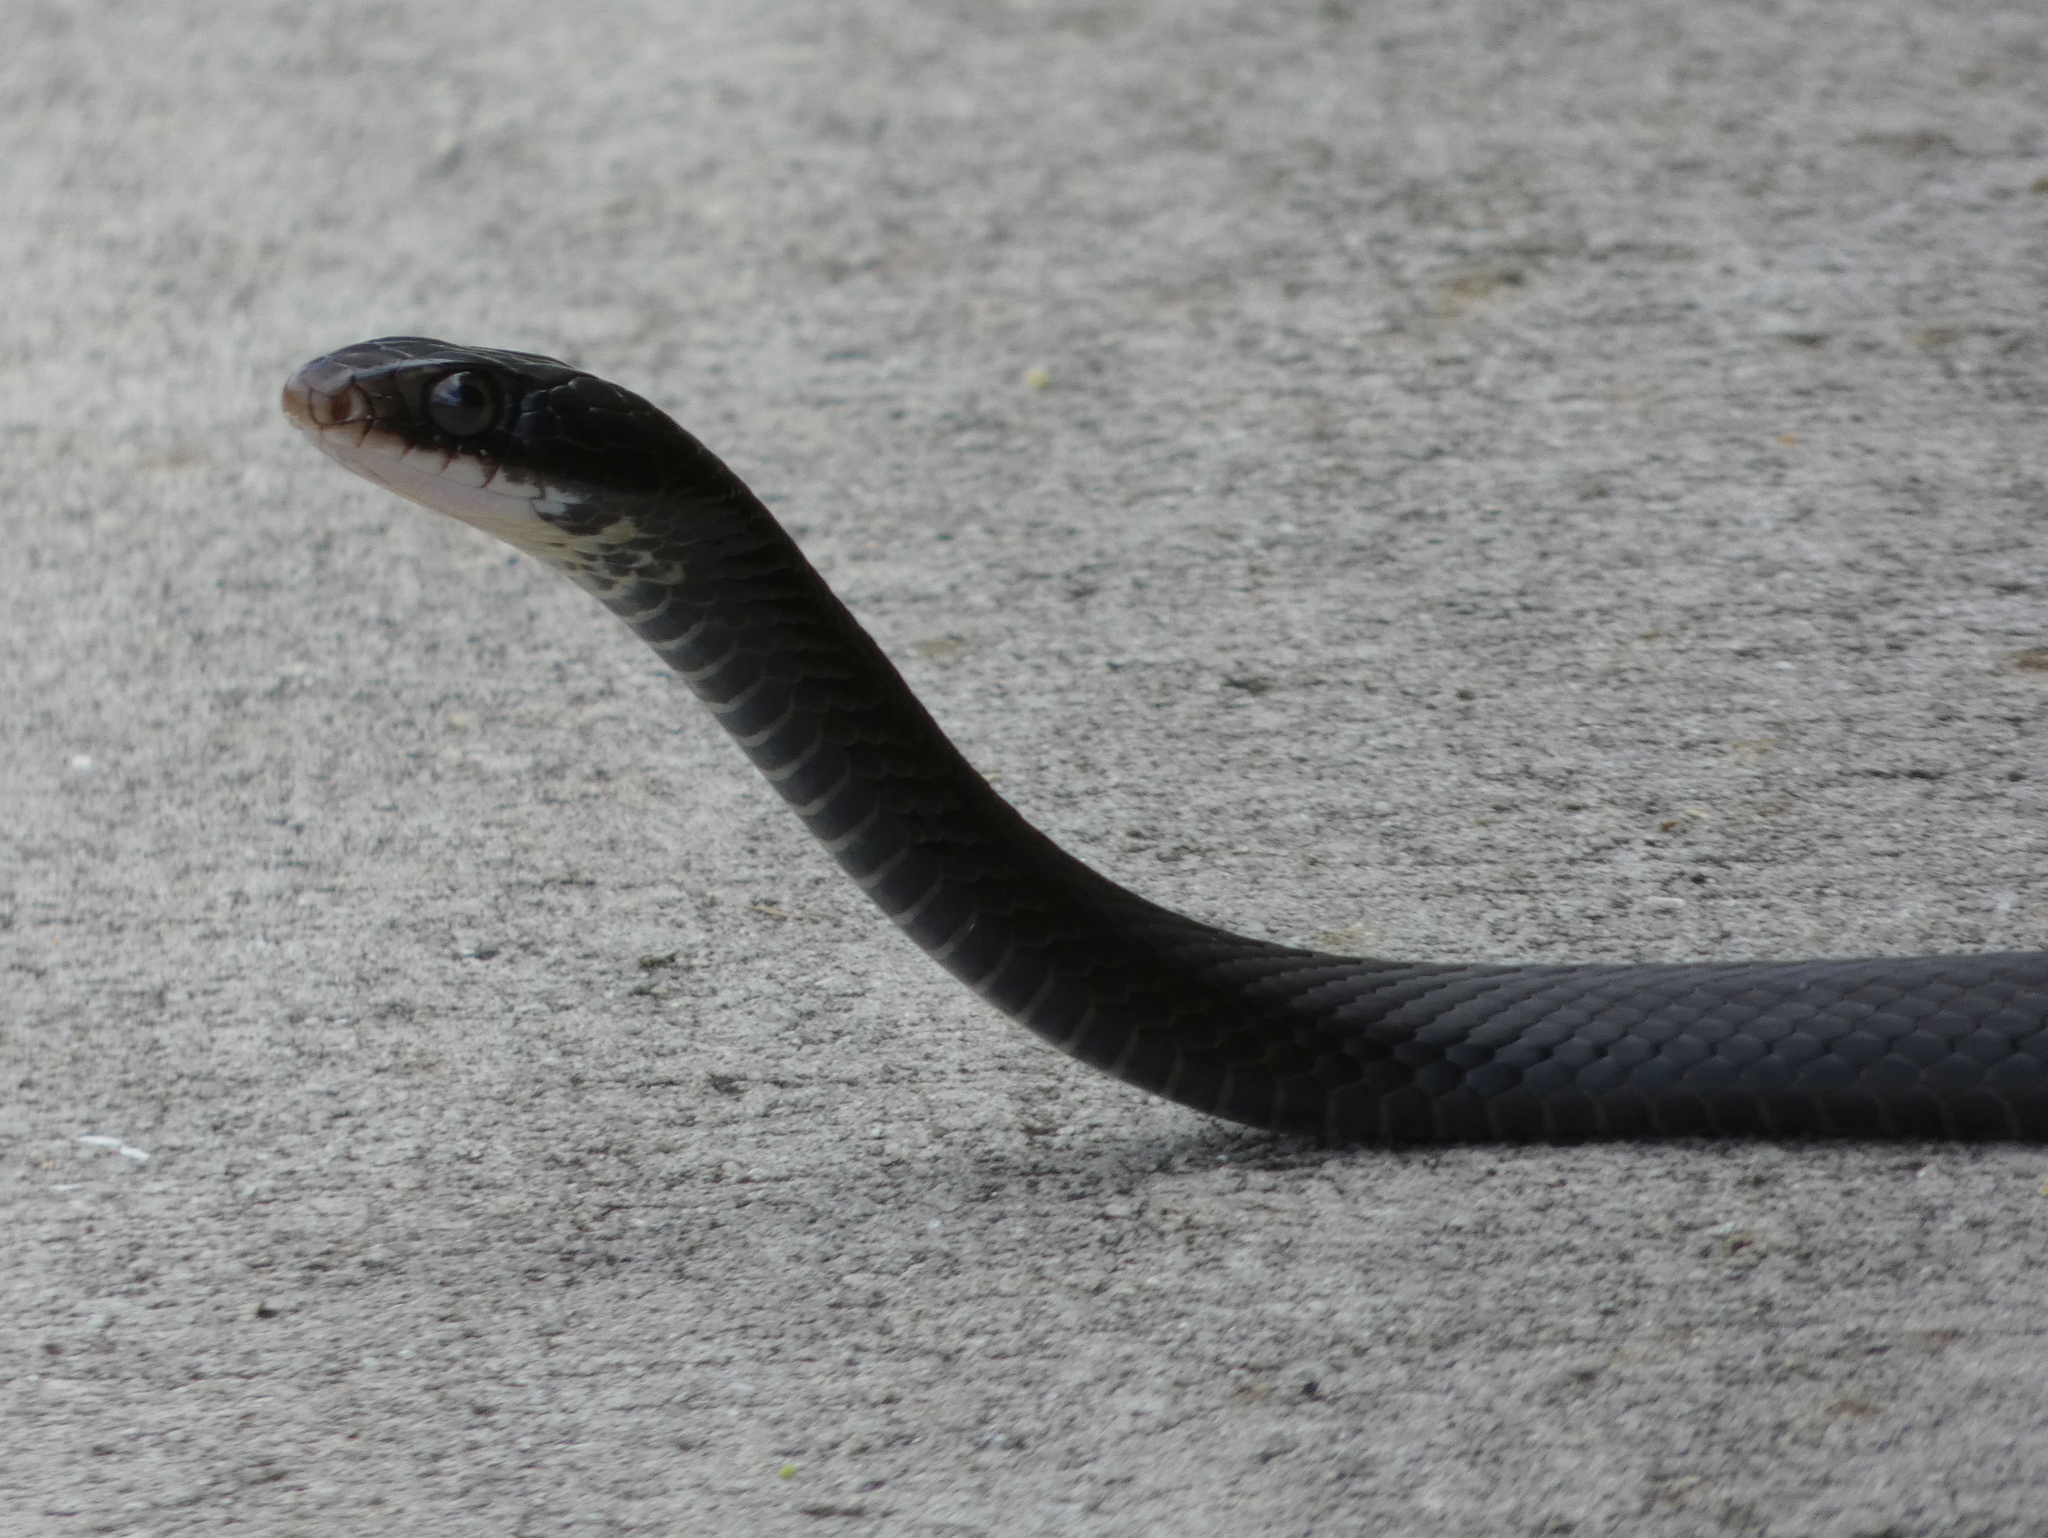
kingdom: Animalia
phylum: Chordata
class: Squamata
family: Colubridae
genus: Coluber
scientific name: Coluber constrictor
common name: Eastern racer
